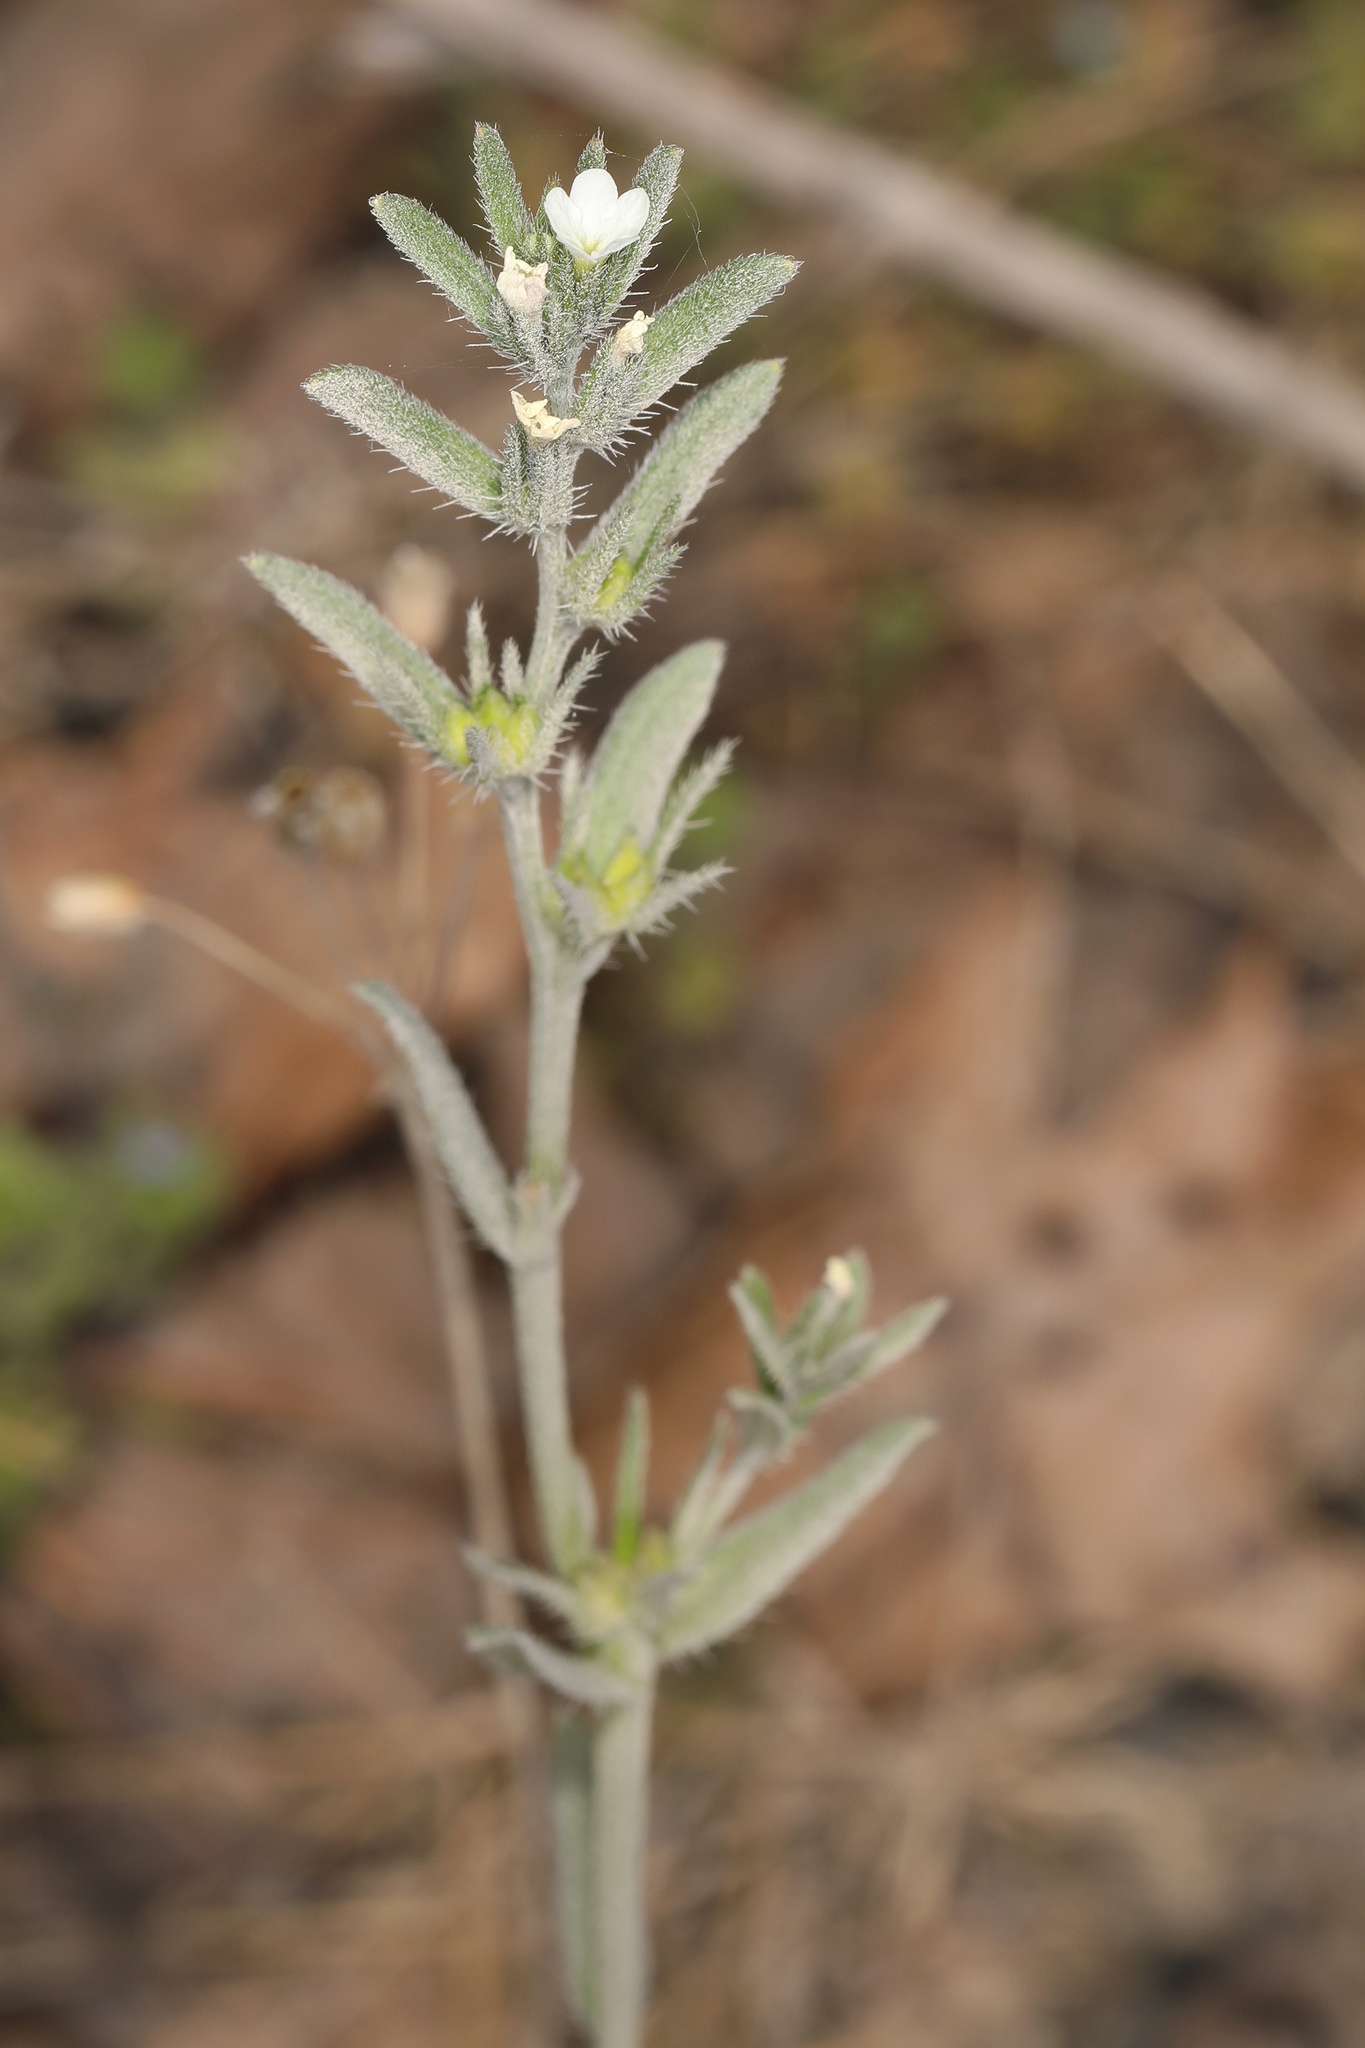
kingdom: Plantae
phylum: Tracheophyta
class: Magnoliopsida
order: Boraginales
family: Boraginaceae
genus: Buglossoides
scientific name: Buglossoides arvensis
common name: Corn gromwell
